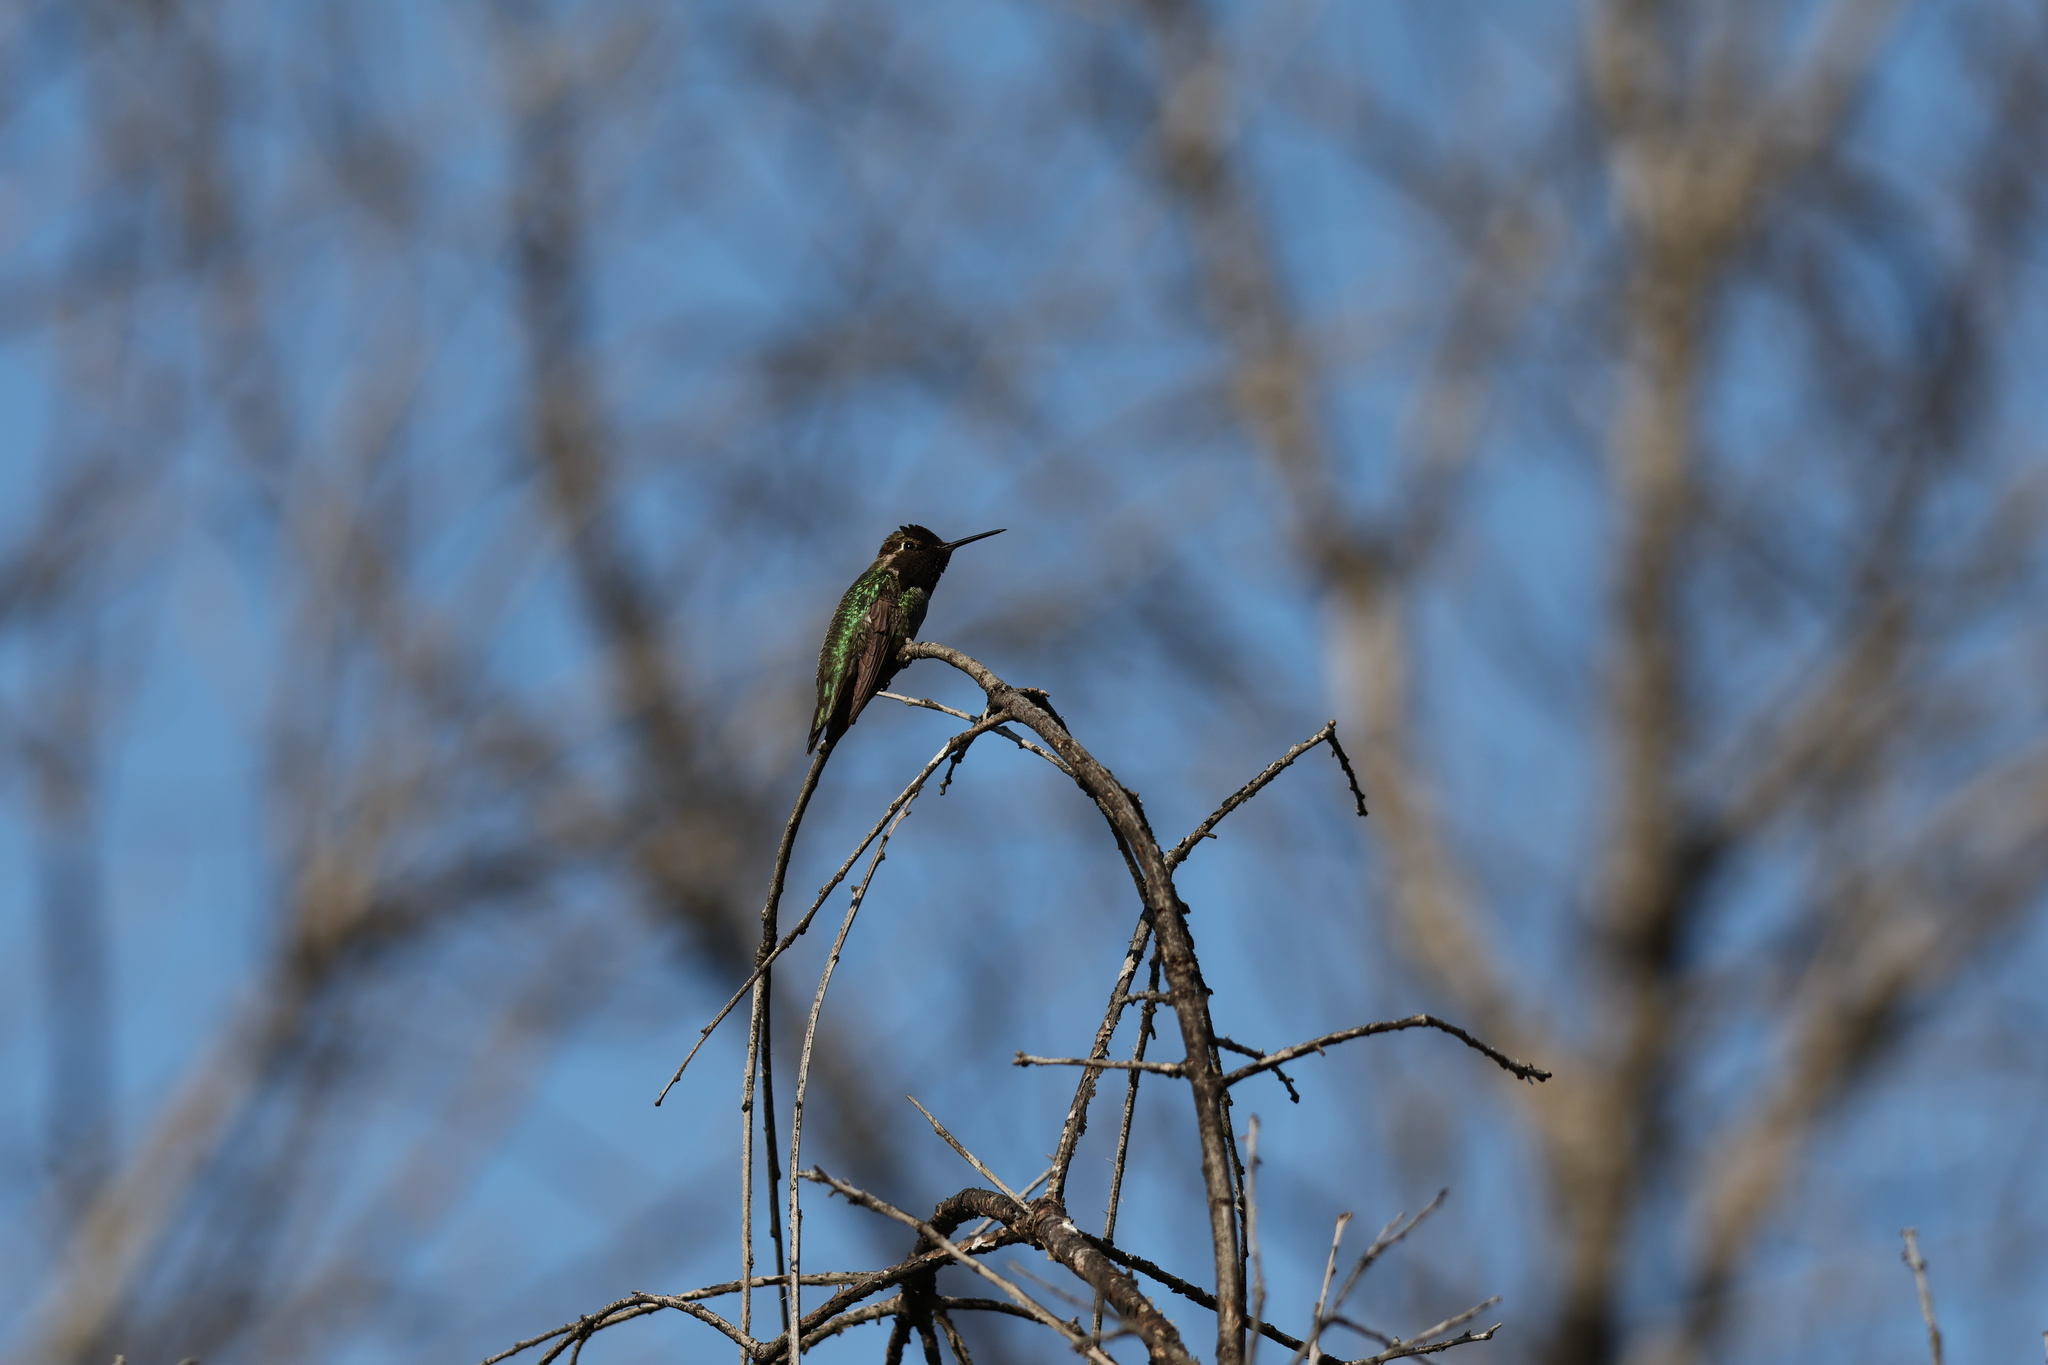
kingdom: Animalia
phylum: Chordata
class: Aves
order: Apodiformes
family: Trochilidae
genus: Calypte
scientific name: Calypte anna
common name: Anna's hummingbird
